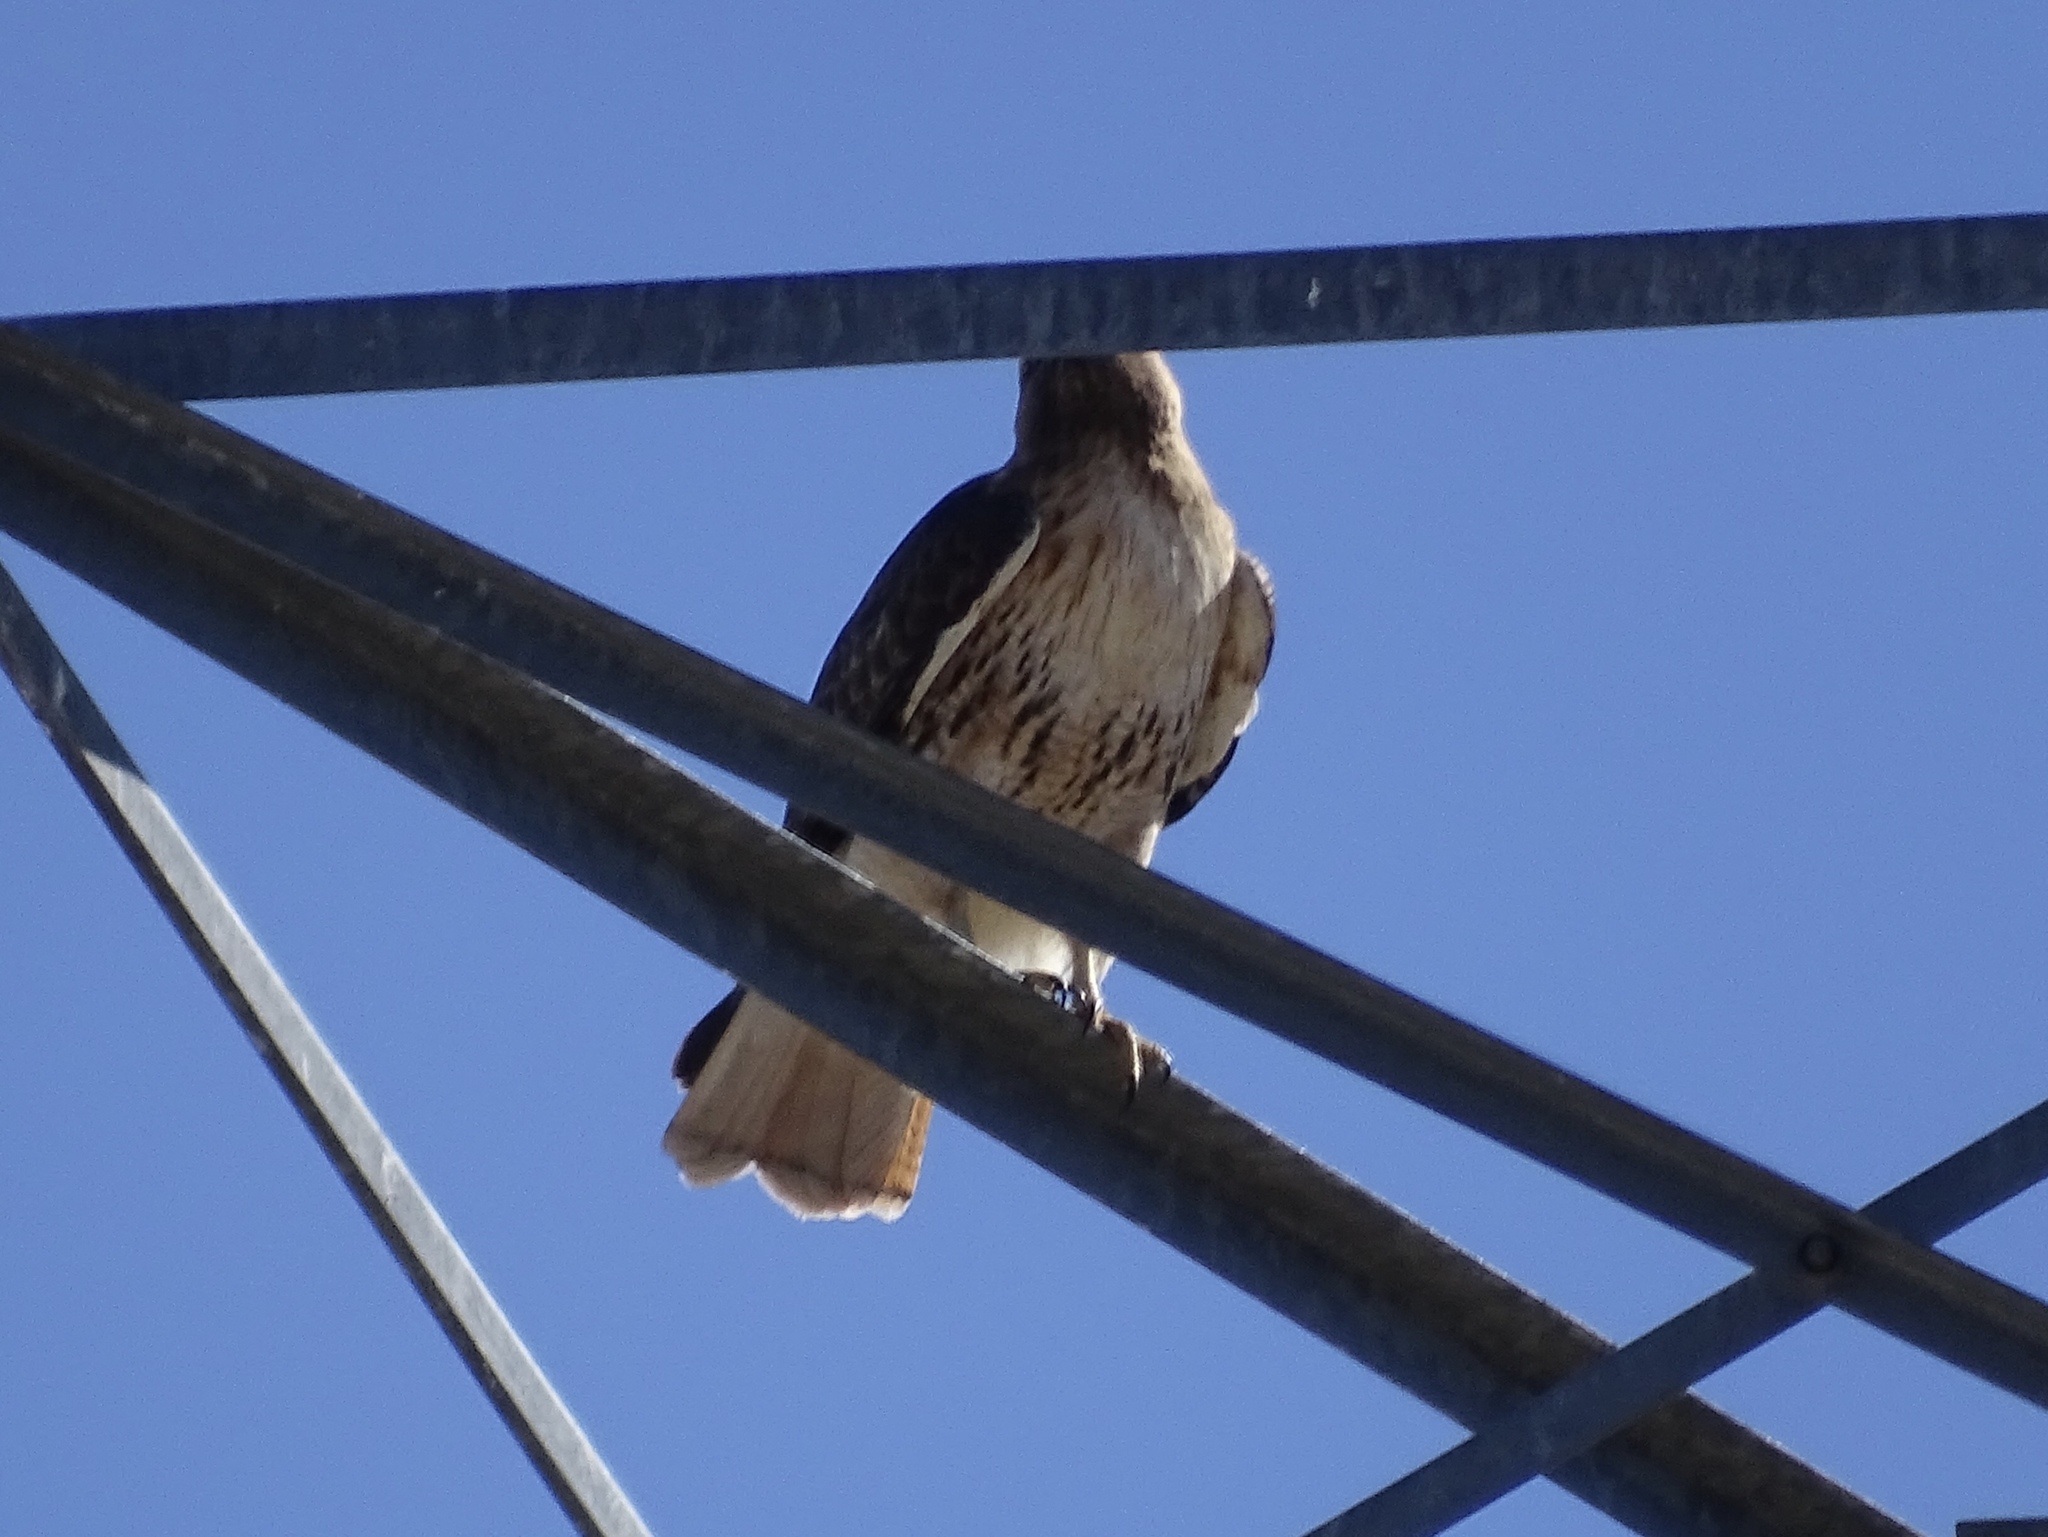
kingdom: Animalia
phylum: Chordata
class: Aves
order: Accipitriformes
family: Accipitridae
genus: Buteo
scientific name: Buteo jamaicensis
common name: Red-tailed hawk
